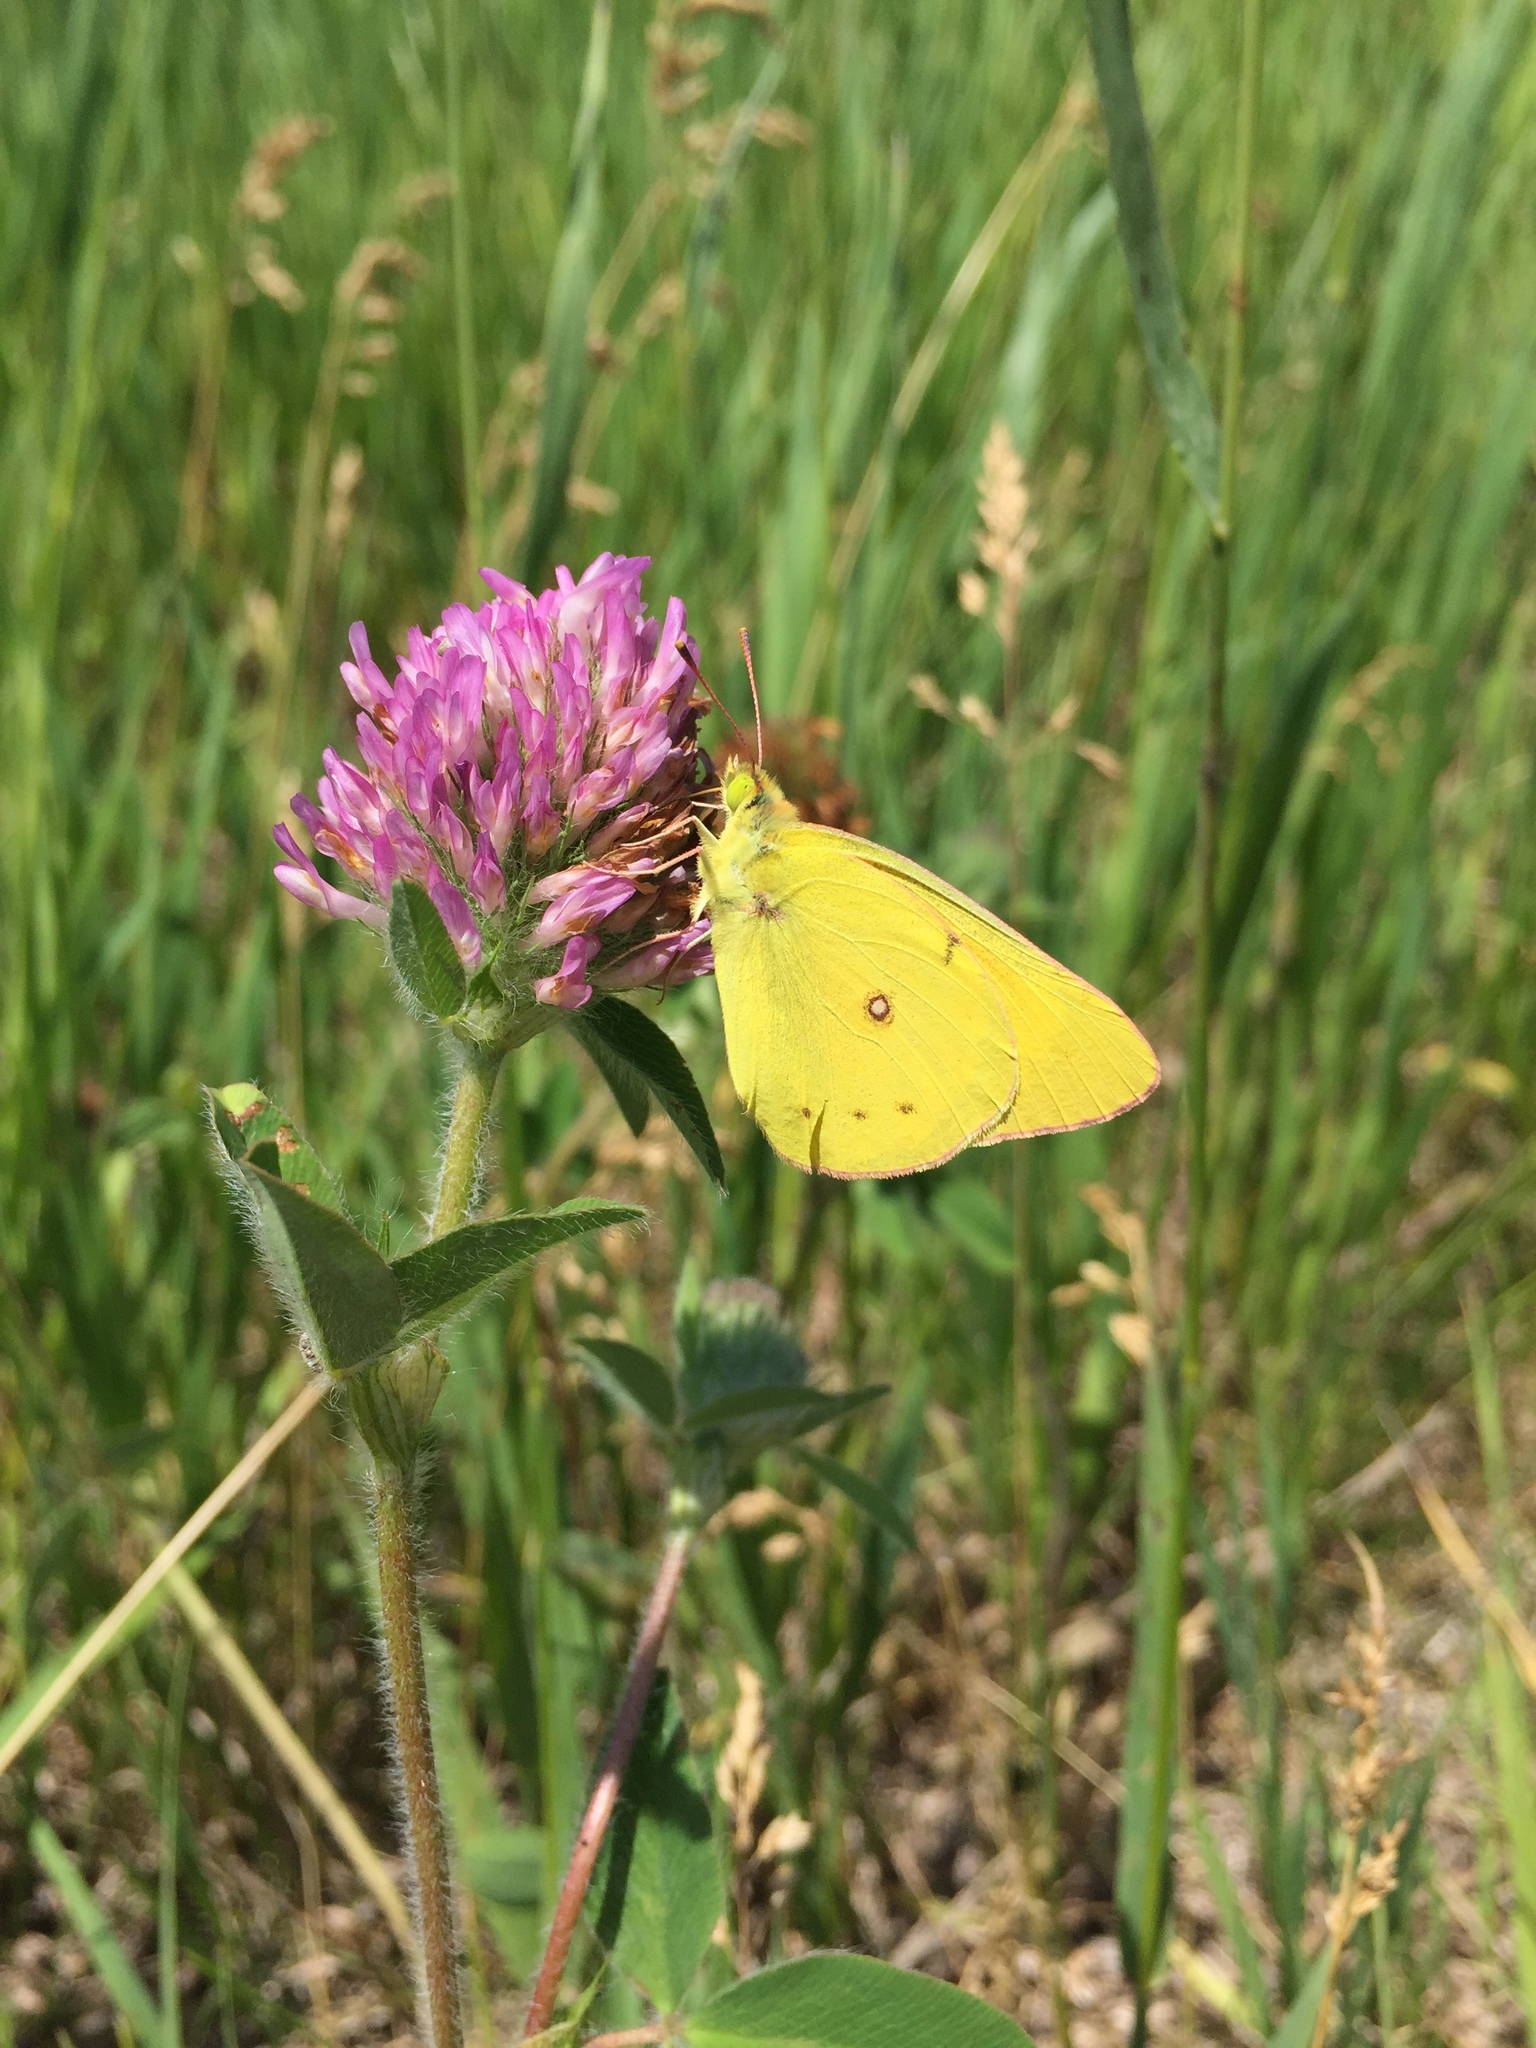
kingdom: Animalia
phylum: Arthropoda
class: Insecta
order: Lepidoptera
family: Pieridae
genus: Colias
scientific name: Colias eurytheme
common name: Alfalfa butterfly
